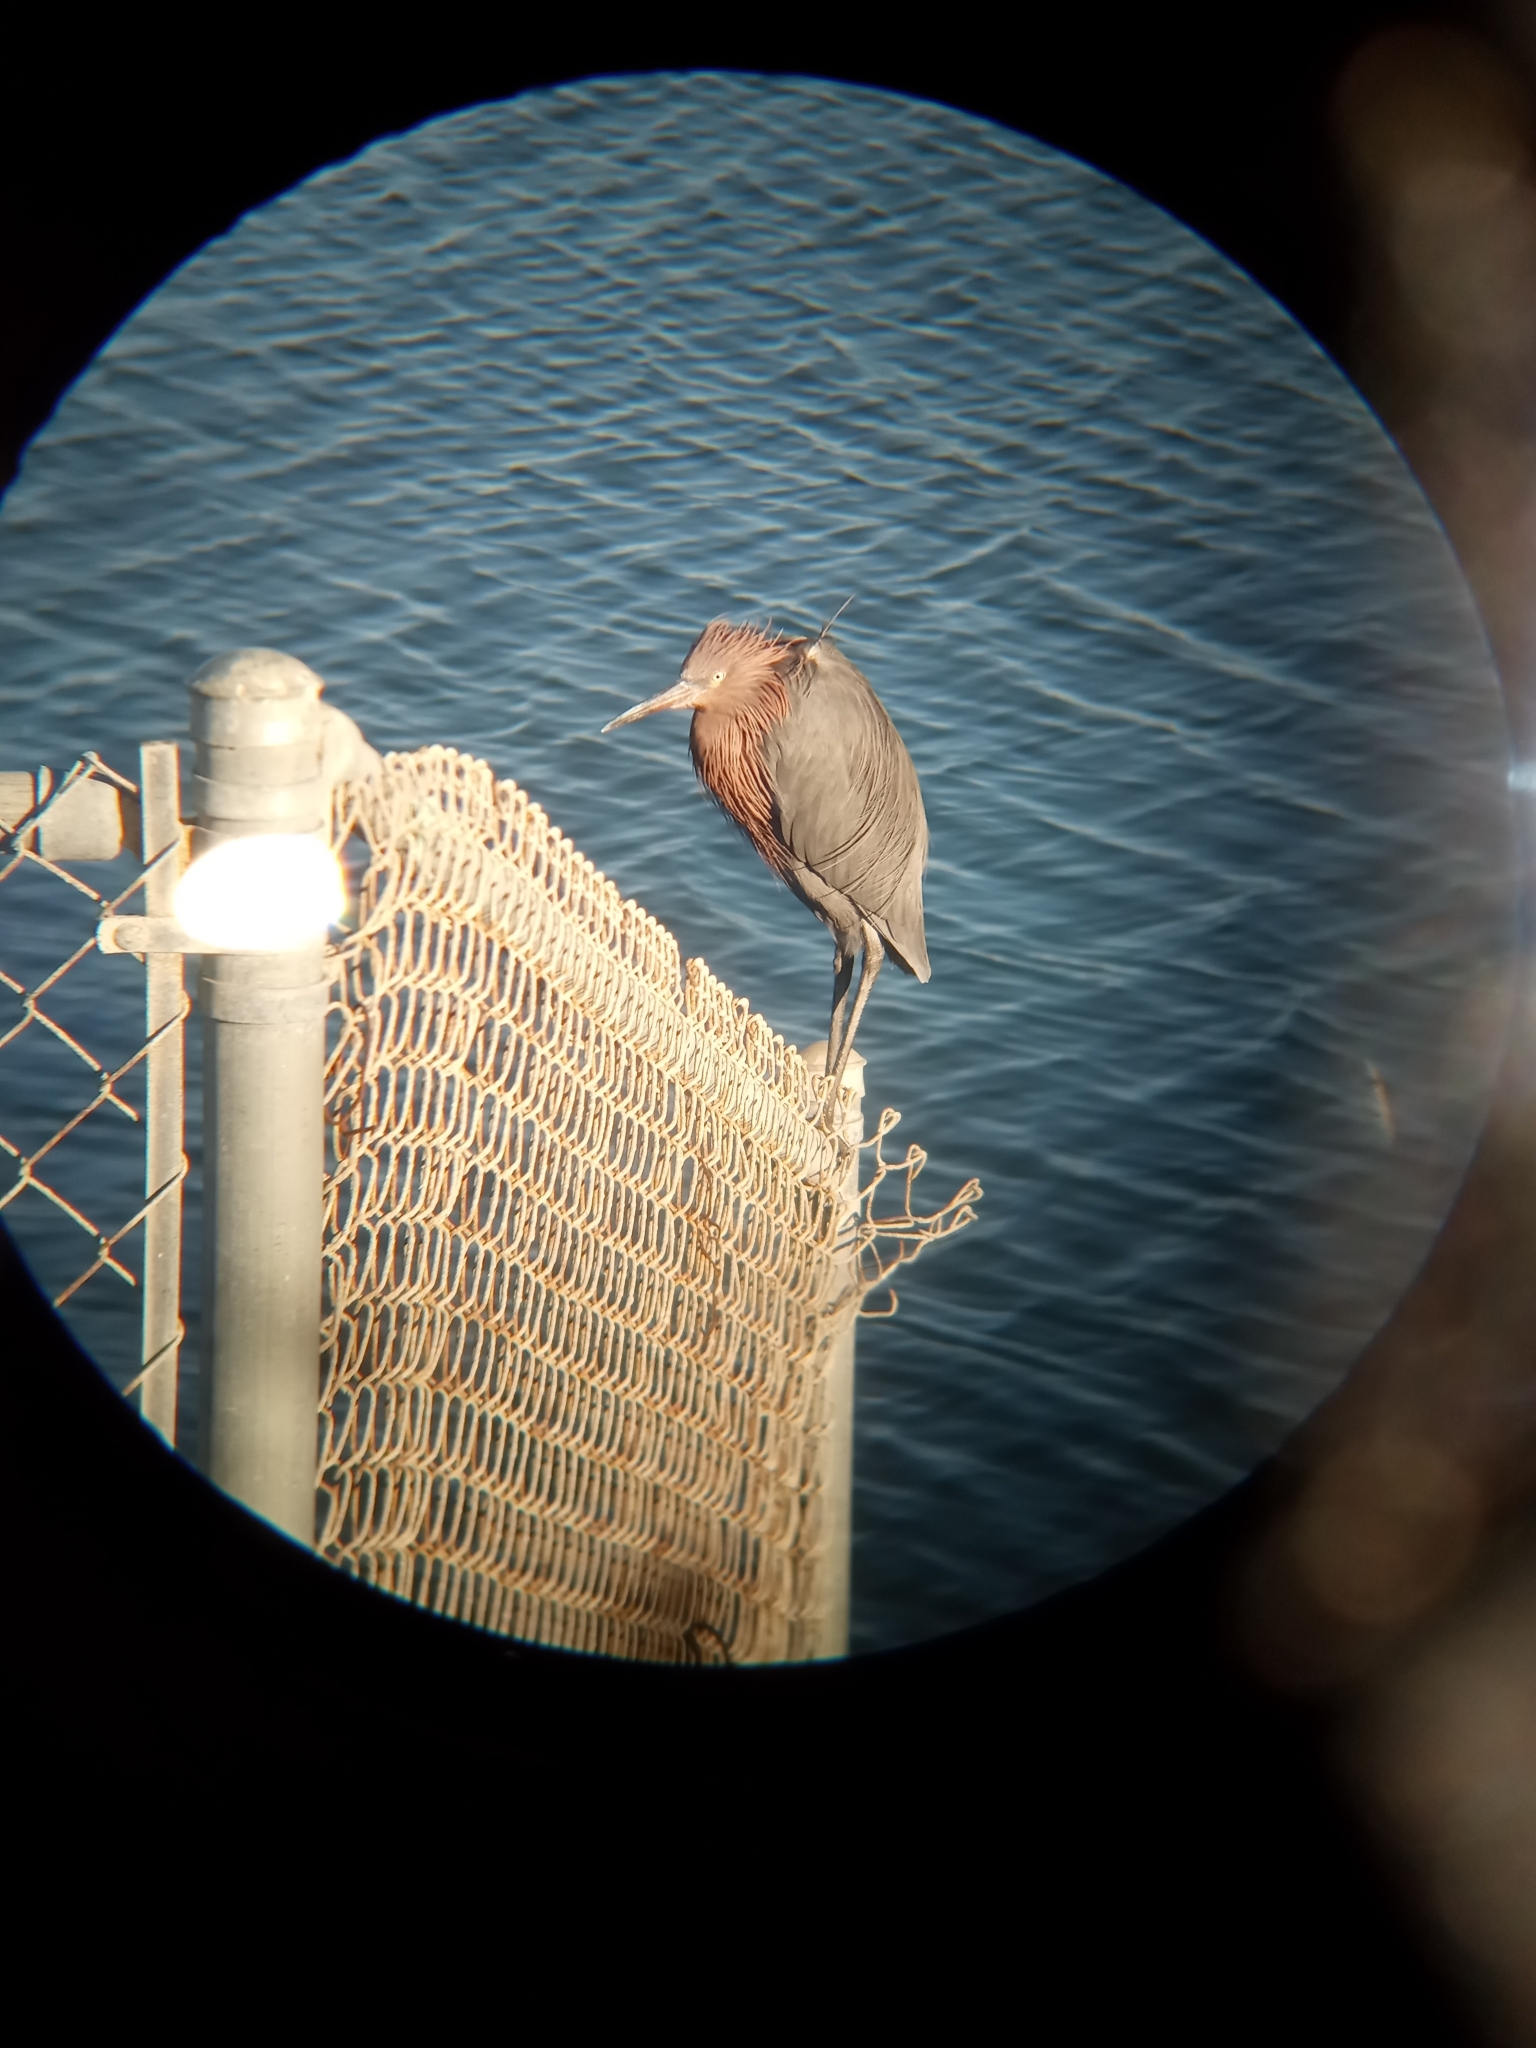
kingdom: Animalia
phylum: Chordata
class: Aves
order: Pelecaniformes
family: Ardeidae
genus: Egretta
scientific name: Egretta rufescens
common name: Reddish egret
